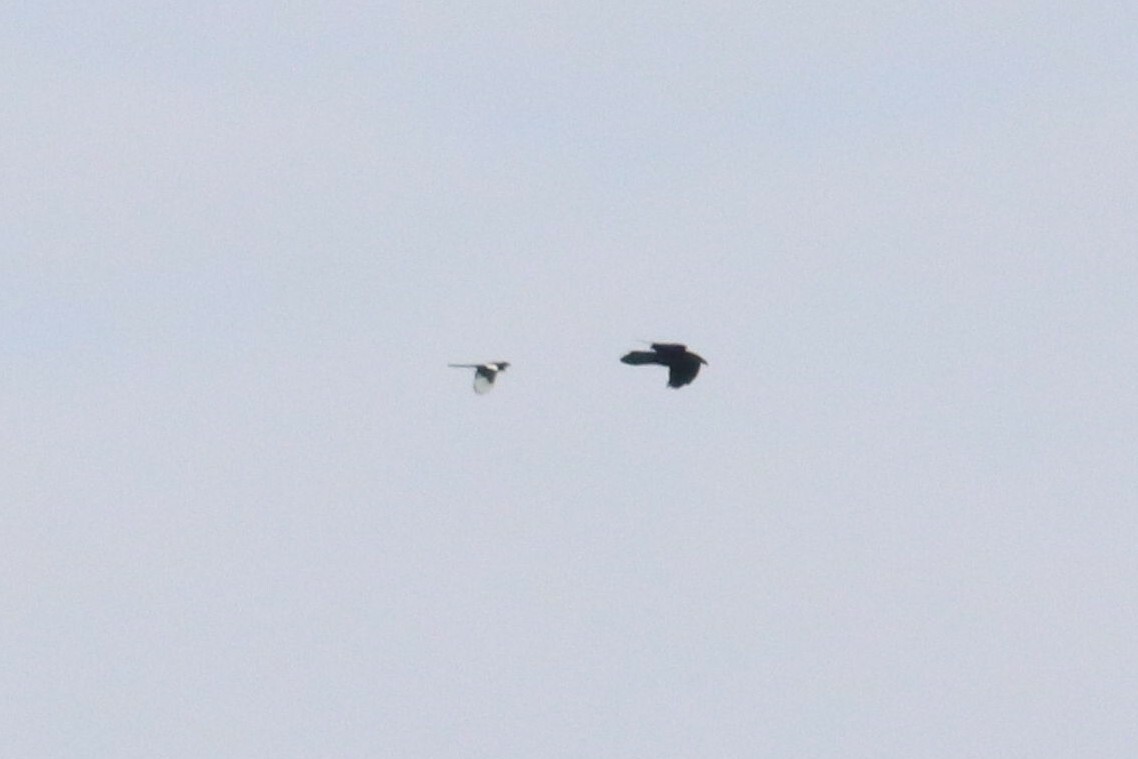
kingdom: Animalia
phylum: Chordata
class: Aves
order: Passeriformes
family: Corvidae
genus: Corvus
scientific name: Corvus corax
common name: Common raven
